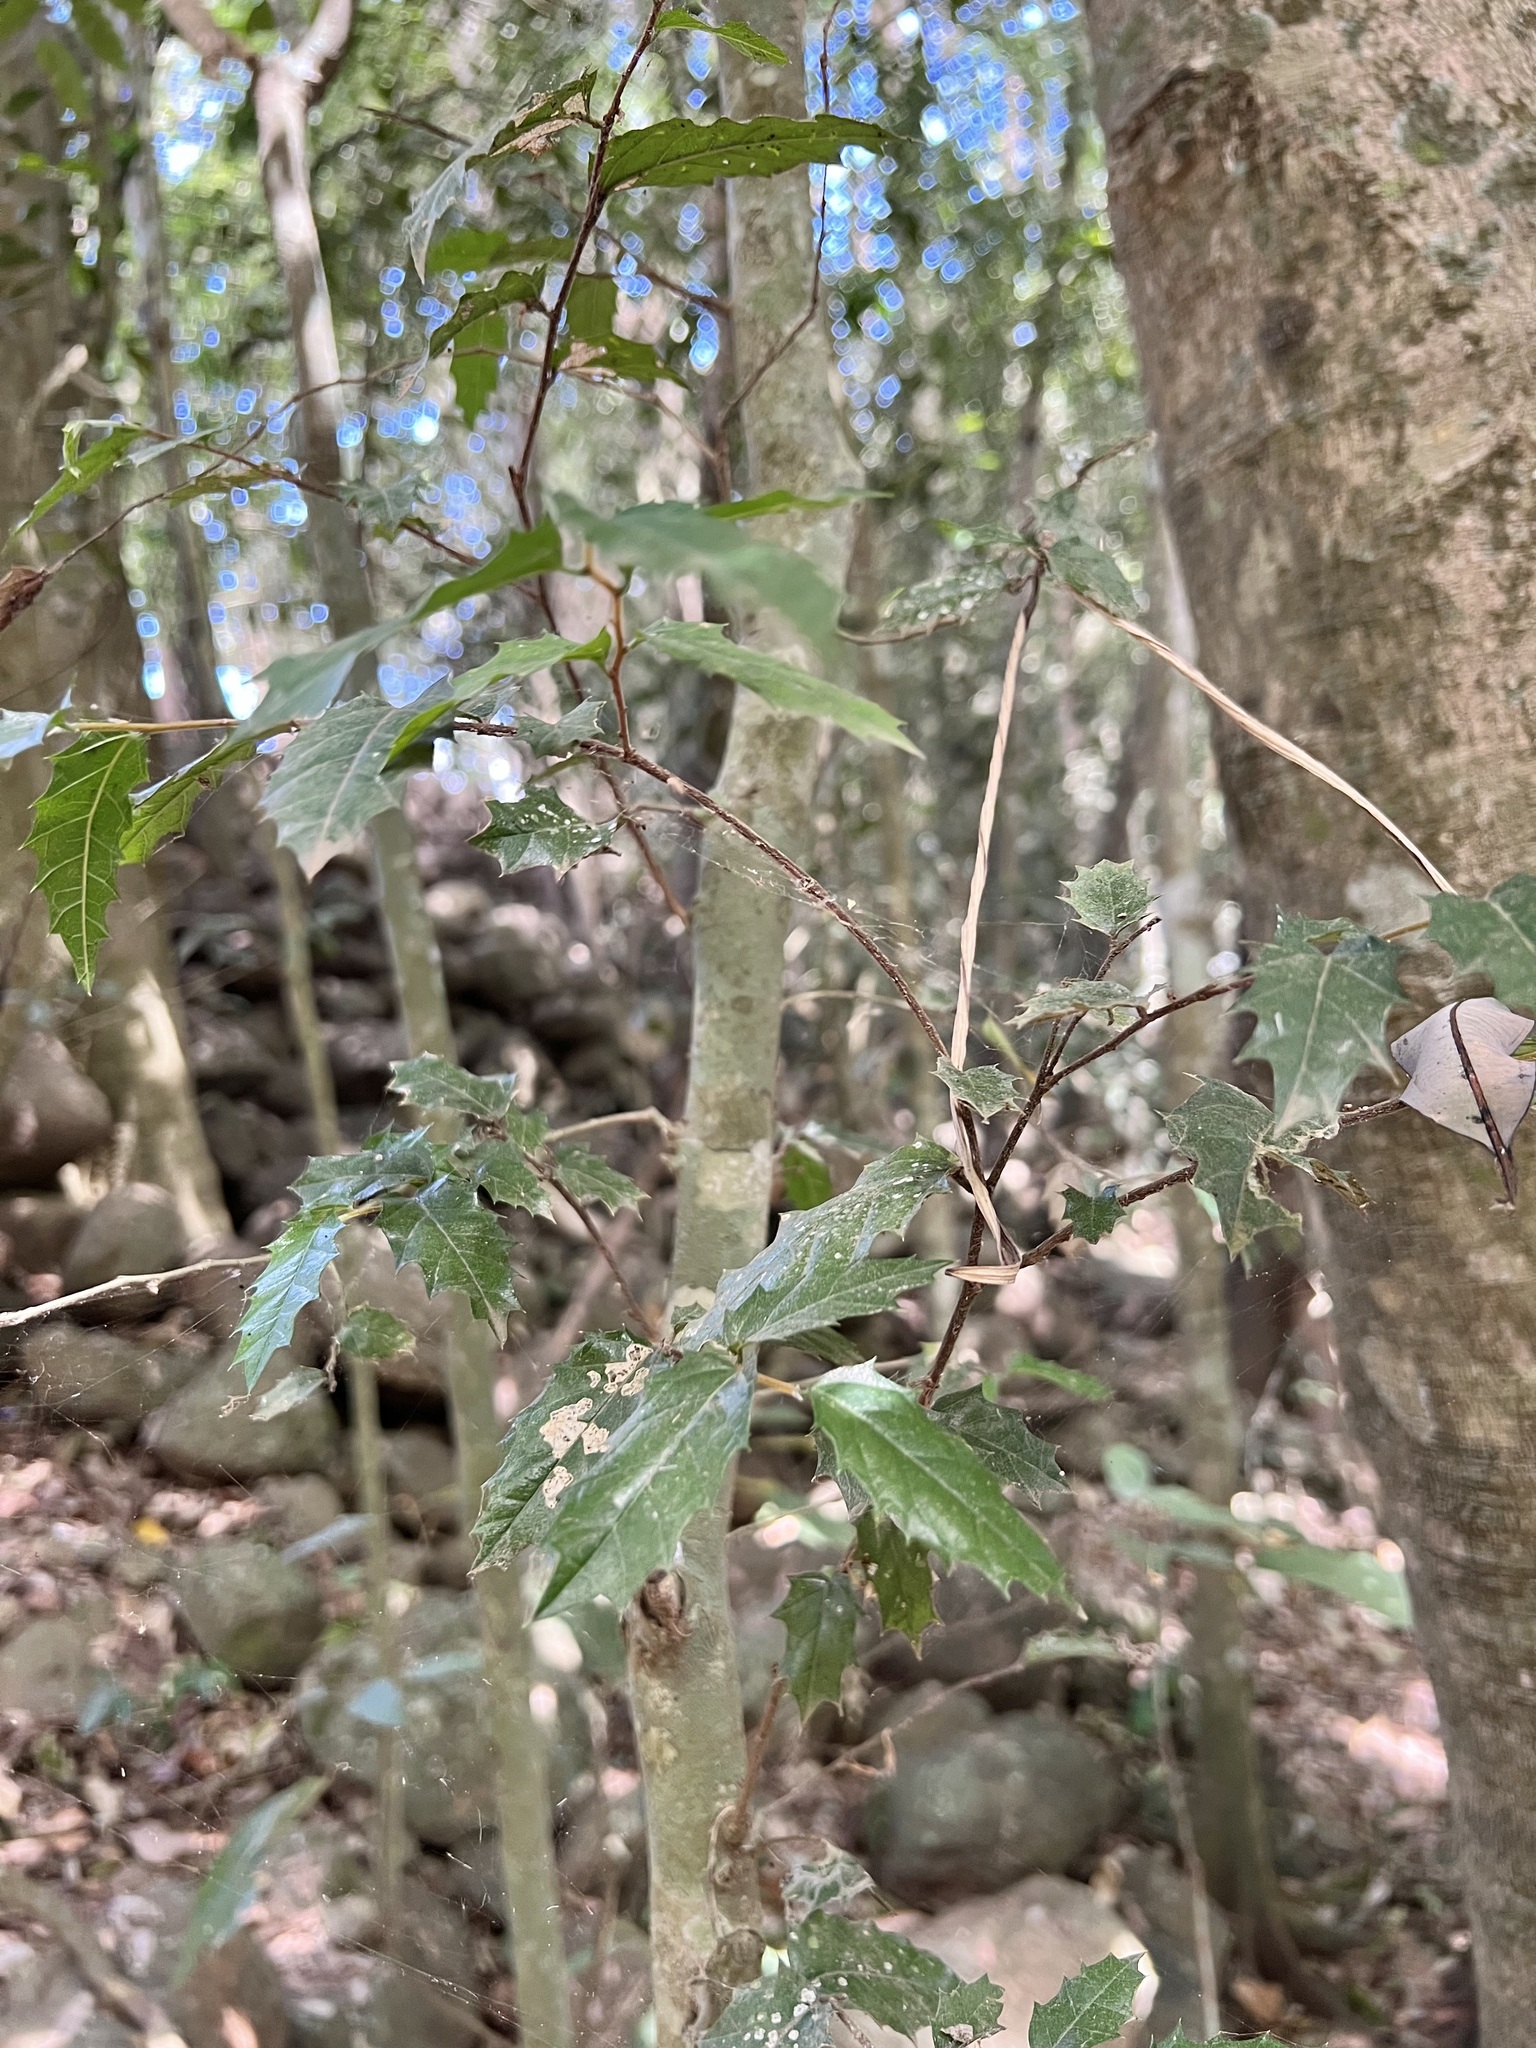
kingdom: Plantae
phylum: Tracheophyta
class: Magnoliopsida
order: Rosales
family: Cannabaceae
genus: Aphananthe
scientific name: Aphananthe philippinensis
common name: Wild holly
